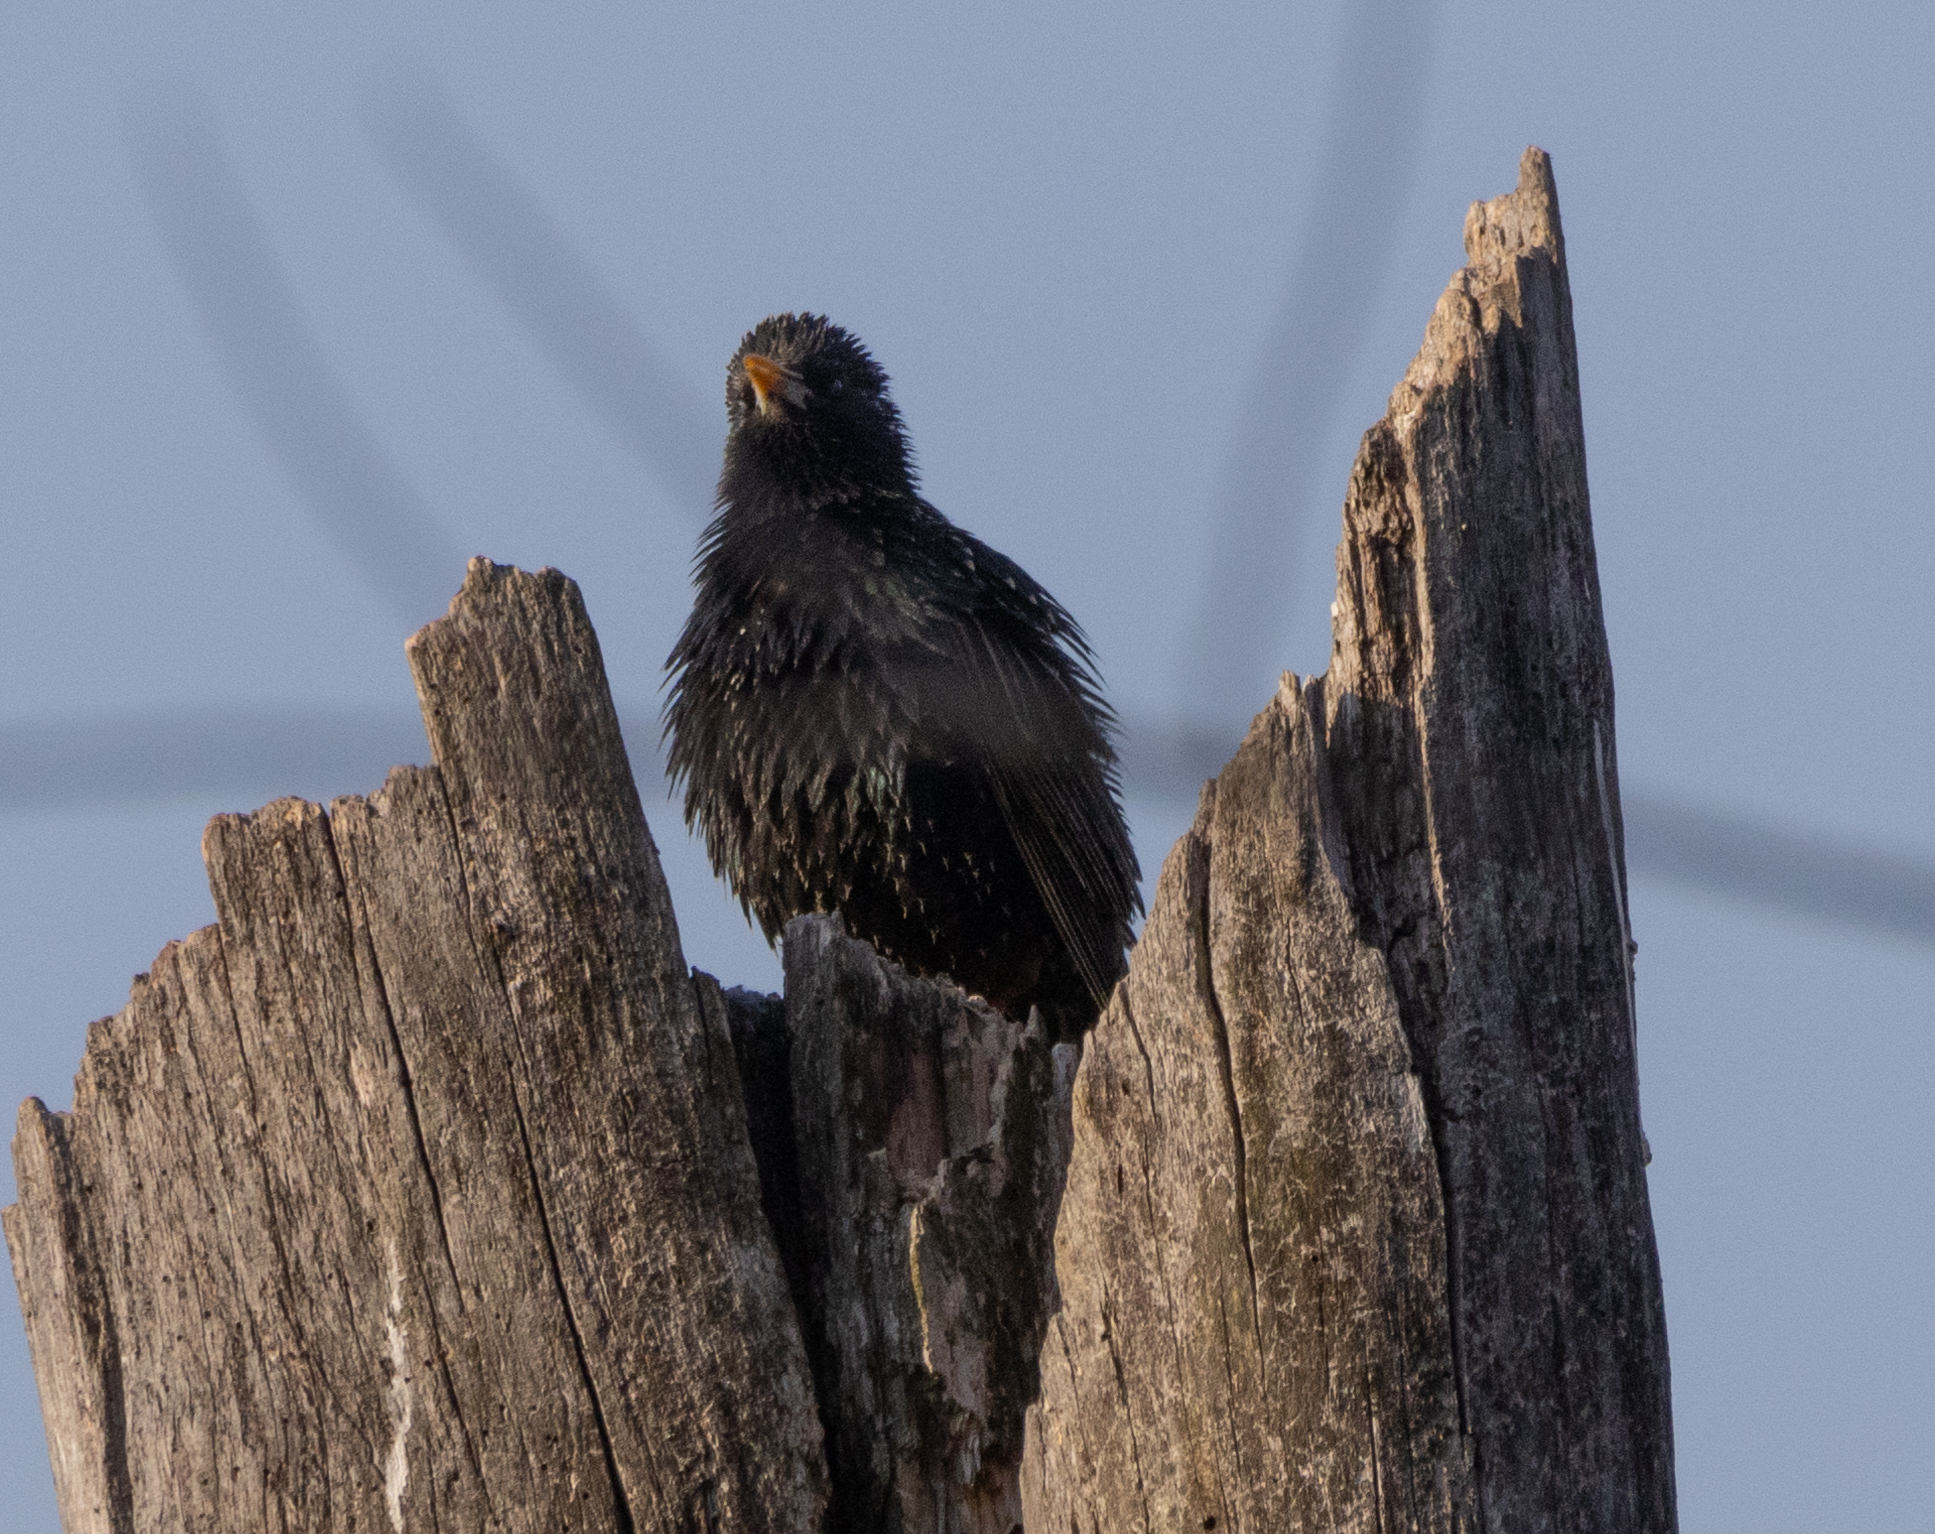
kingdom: Animalia
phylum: Chordata
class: Aves
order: Passeriformes
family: Sturnidae
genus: Sturnus
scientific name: Sturnus vulgaris
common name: Common starling
